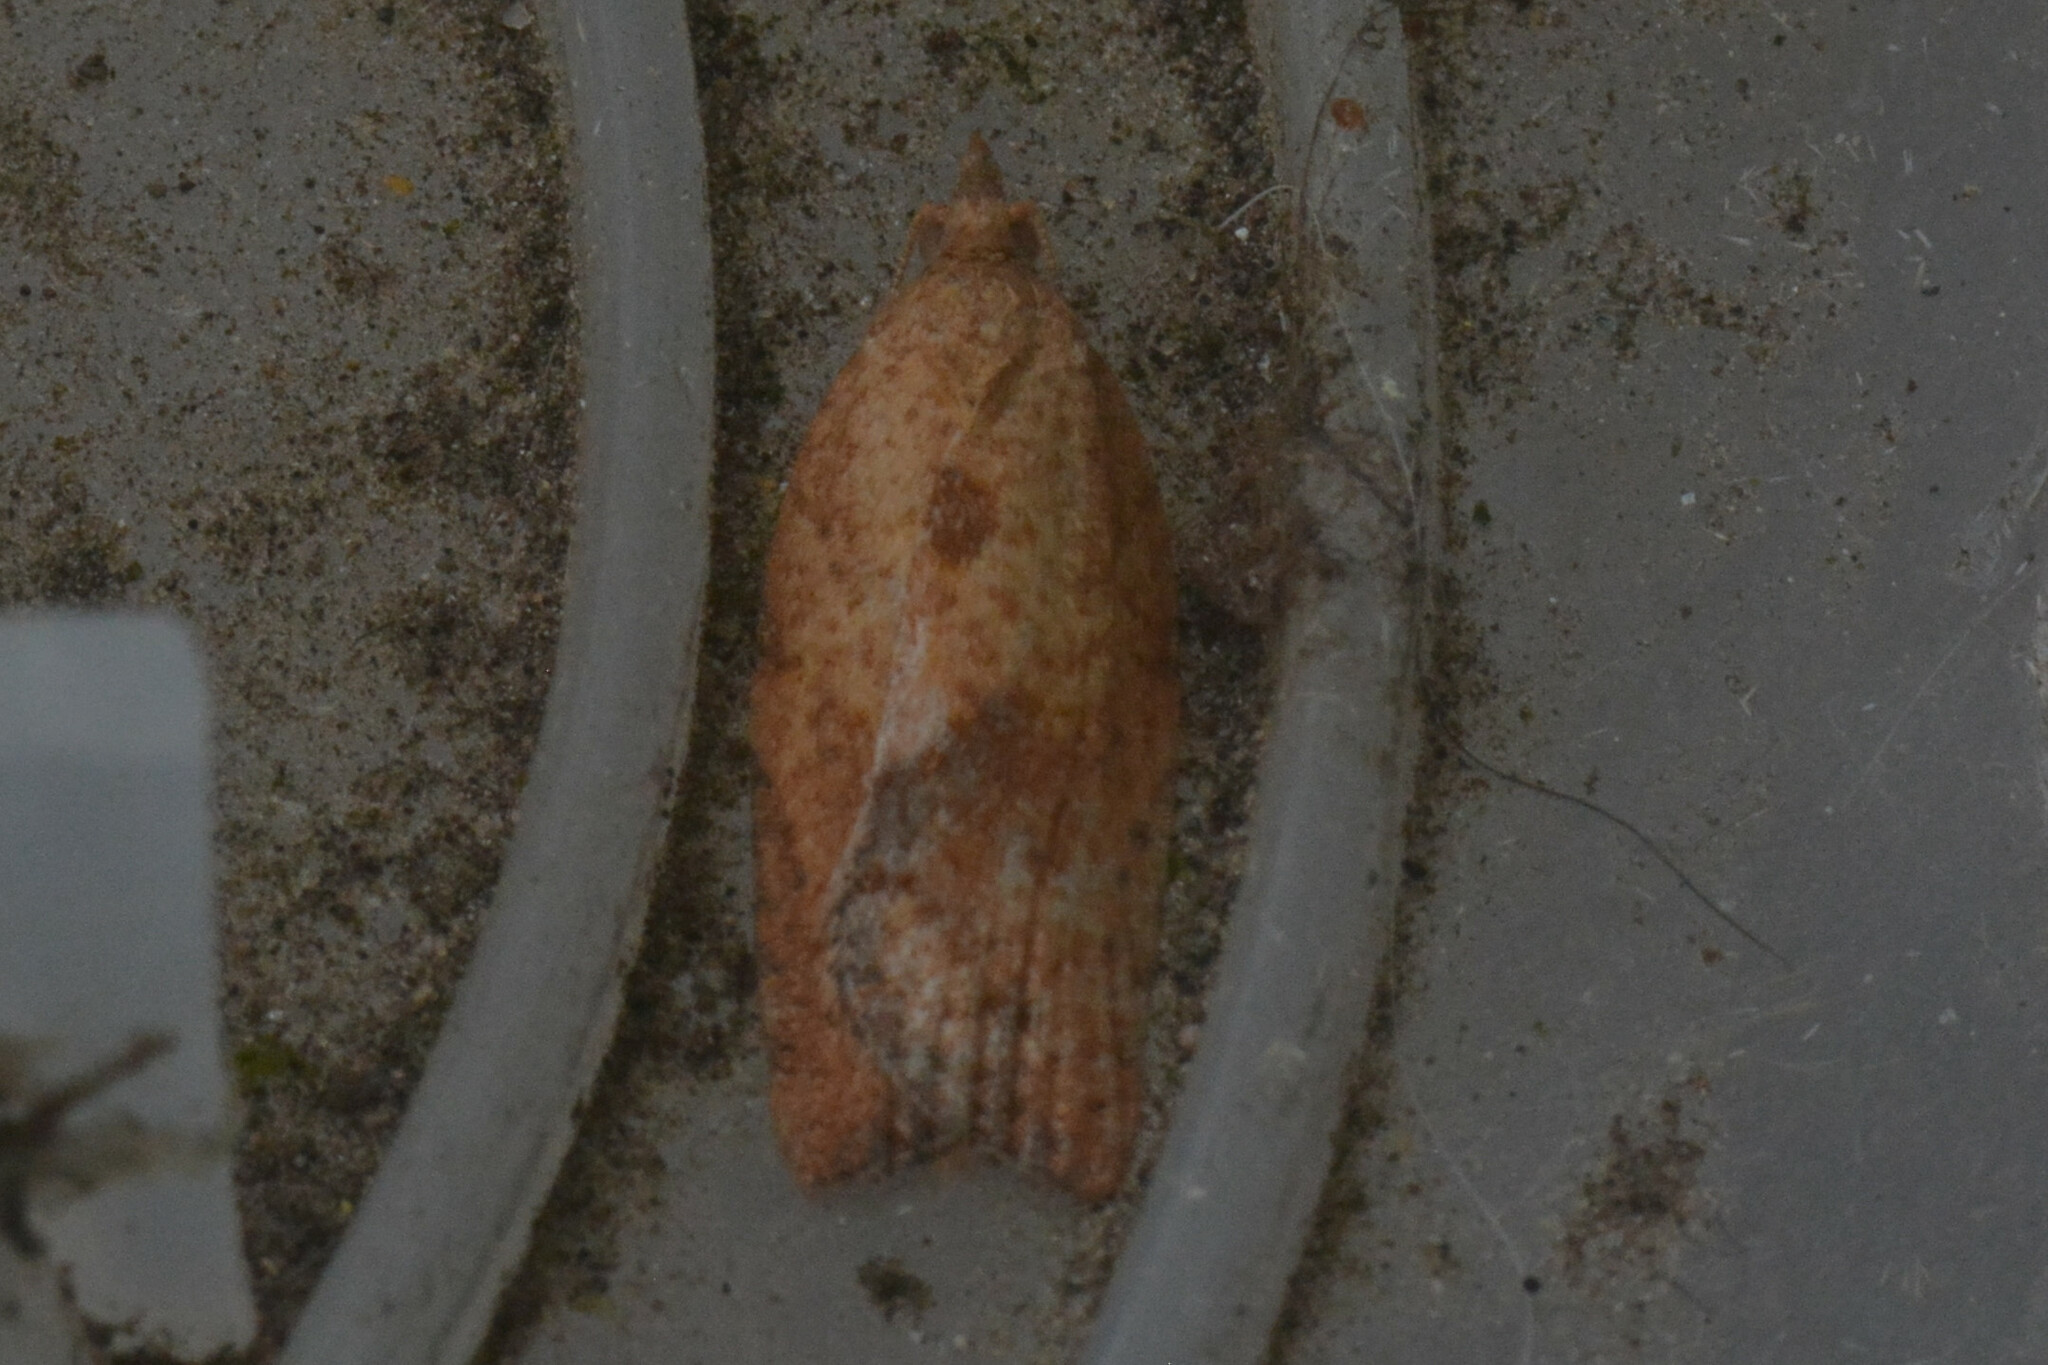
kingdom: Animalia
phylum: Arthropoda
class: Insecta
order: Lepidoptera
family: Tortricidae
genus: Epiphyas
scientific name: Epiphyas postvittana
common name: Light brown apple moth
